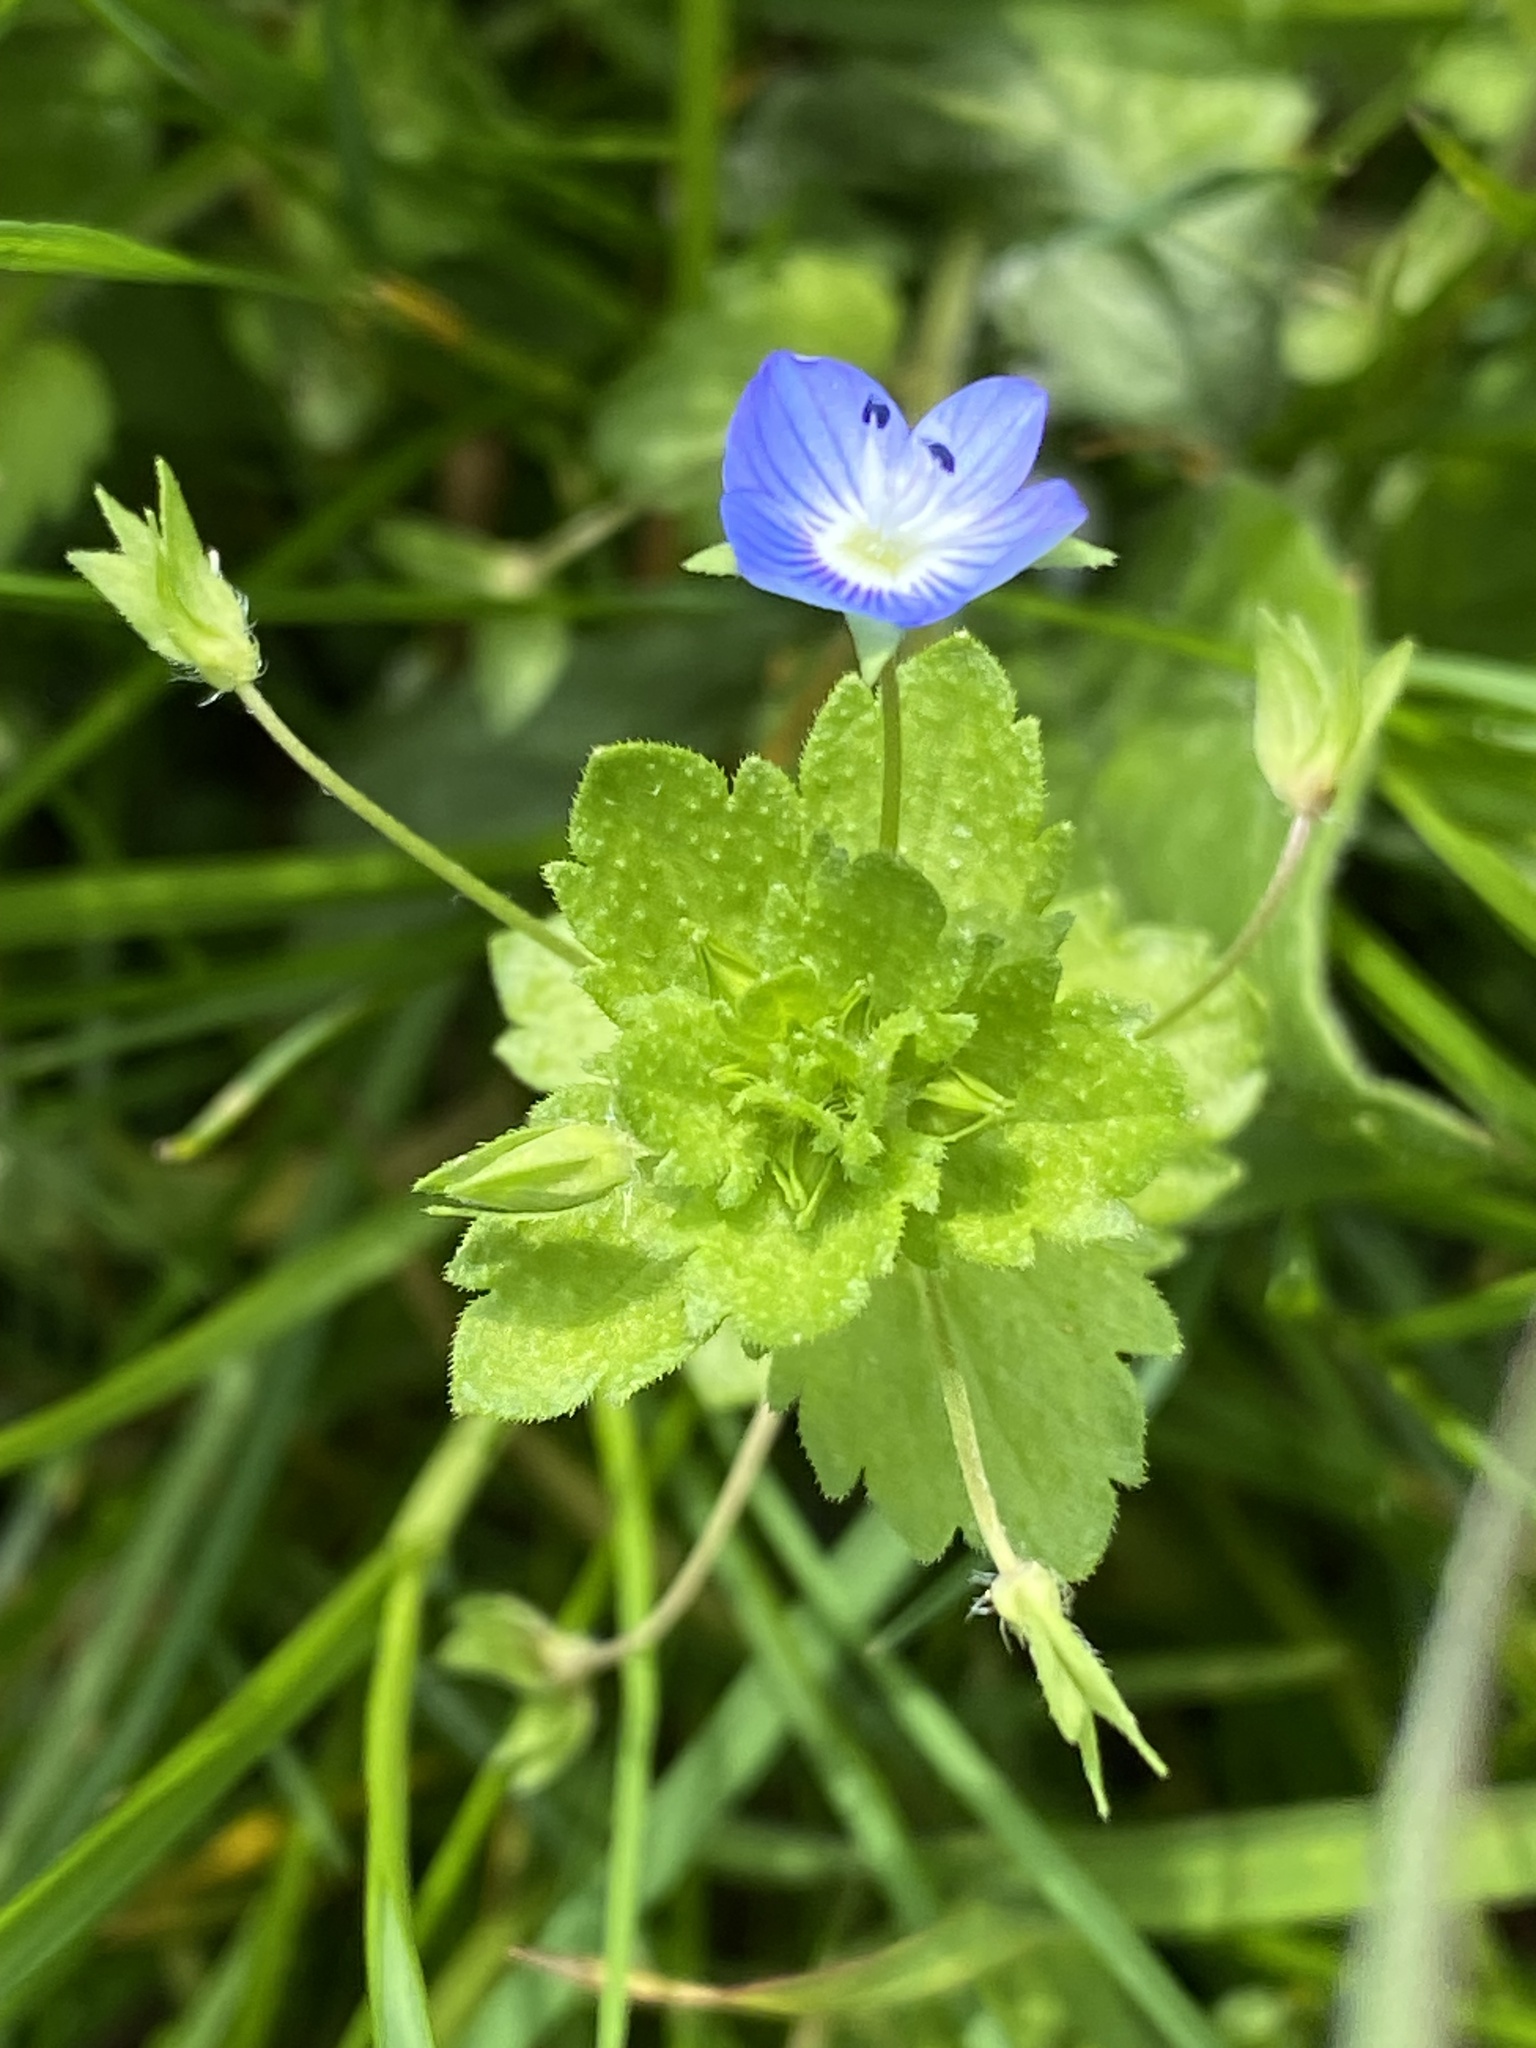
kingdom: Plantae
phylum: Tracheophyta
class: Magnoliopsida
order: Lamiales
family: Plantaginaceae
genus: Veronica
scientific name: Veronica persica
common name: Common field-speedwell
